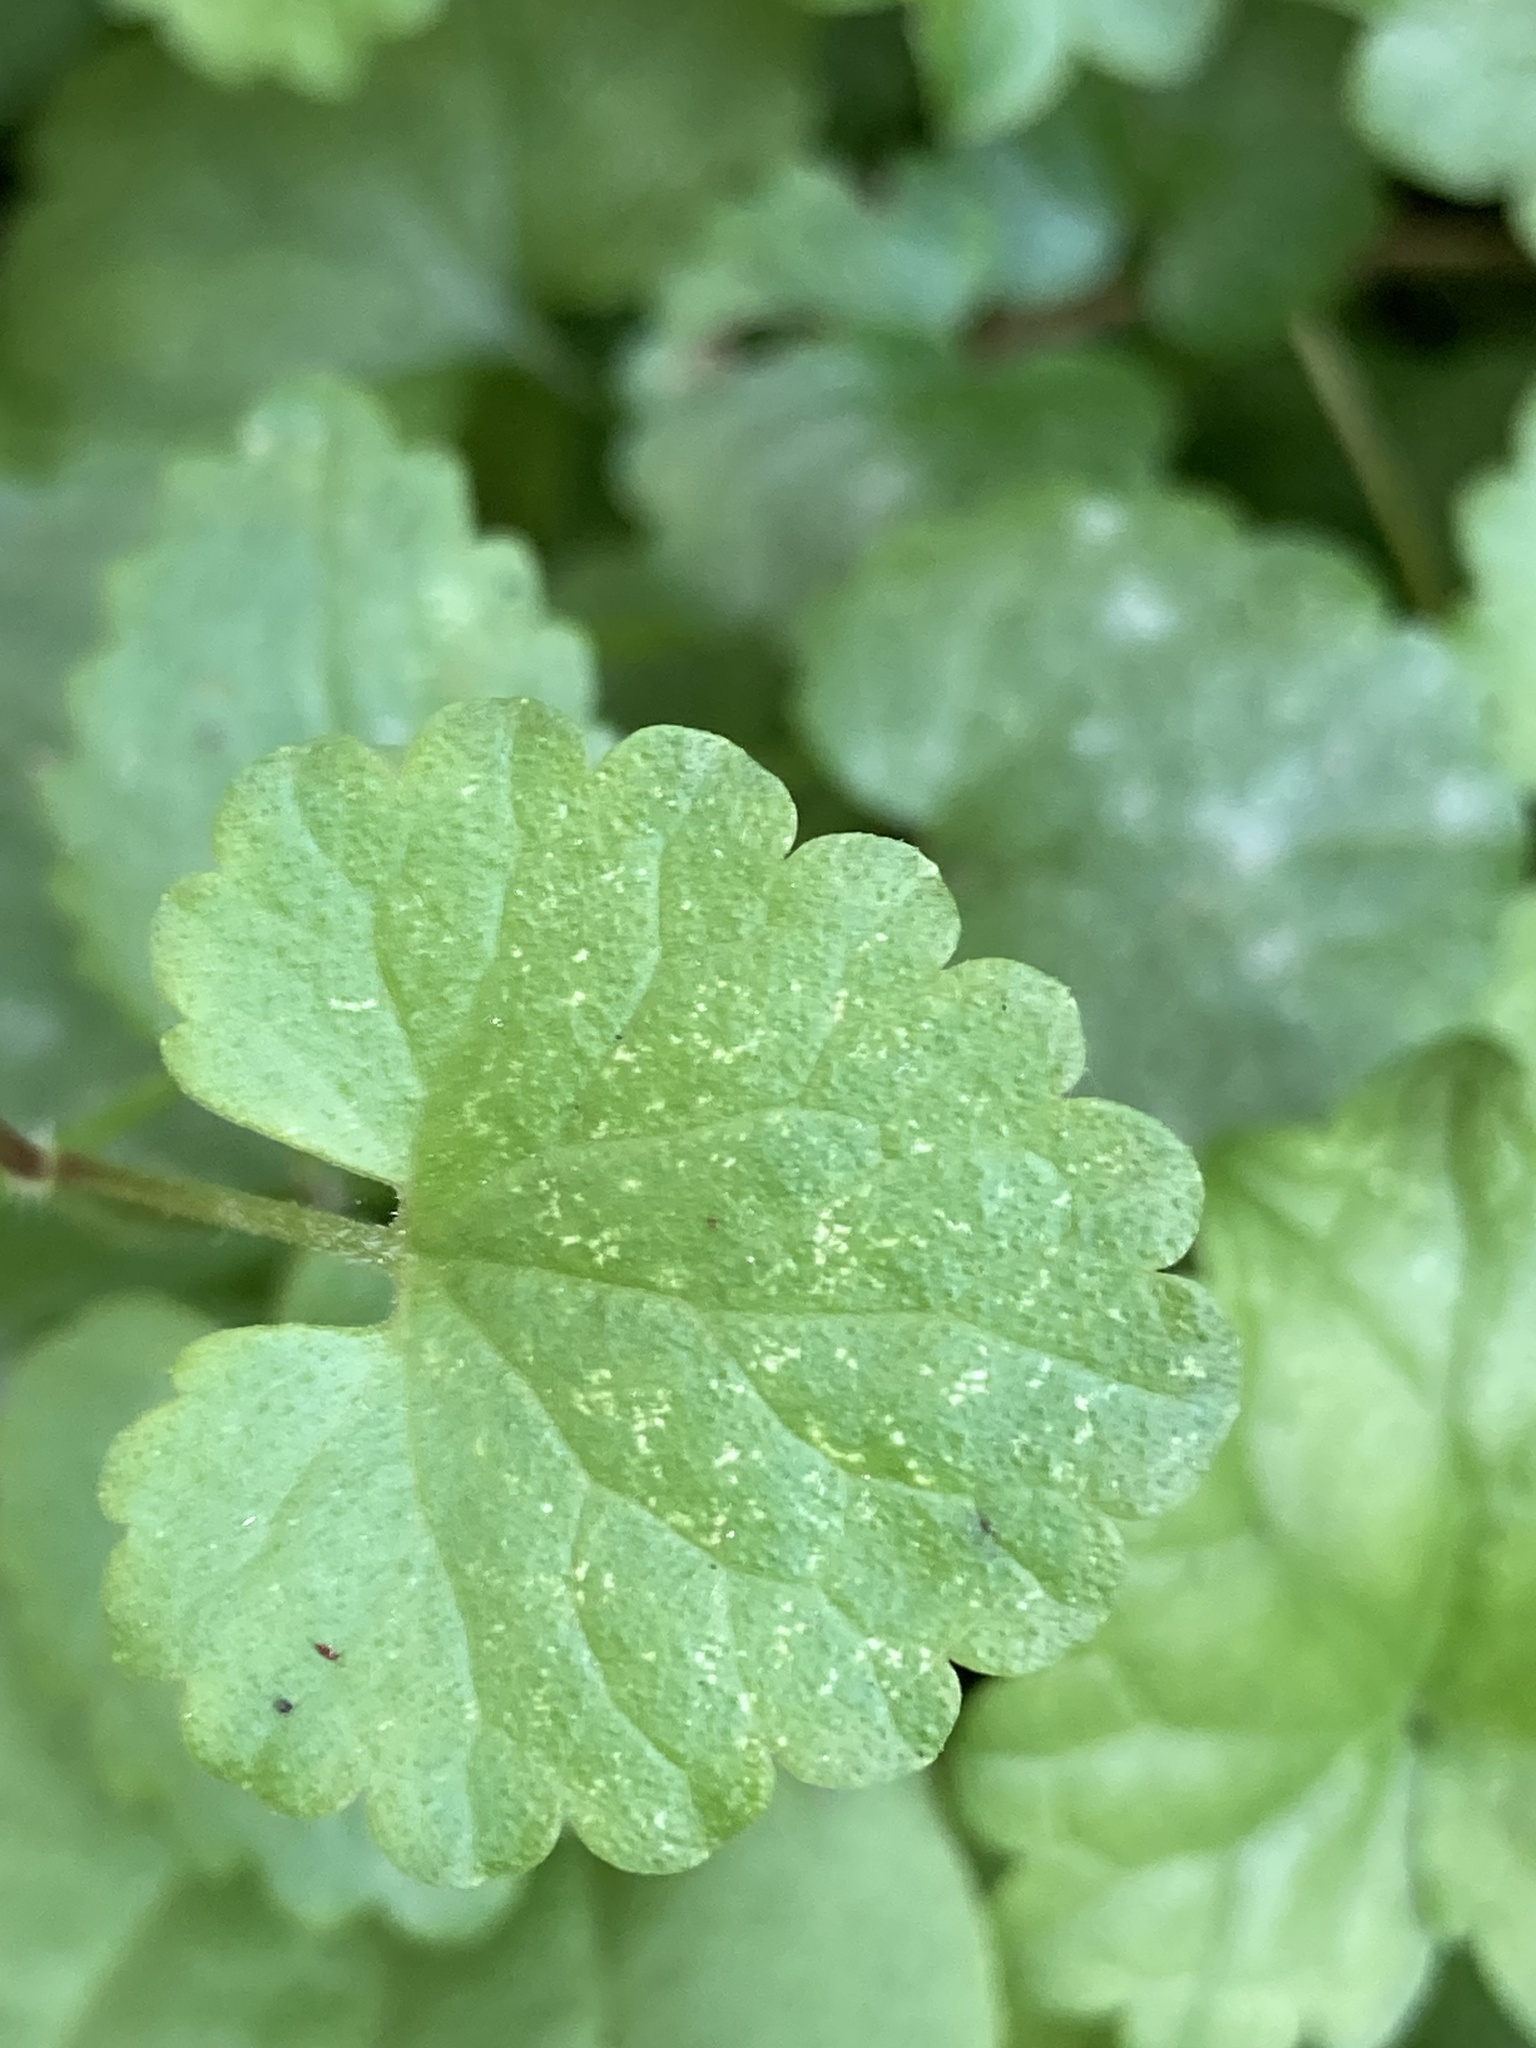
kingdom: Plantae
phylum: Tracheophyta
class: Magnoliopsida
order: Lamiales
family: Lamiaceae
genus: Glechoma
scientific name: Glechoma hederacea
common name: Ground ivy
